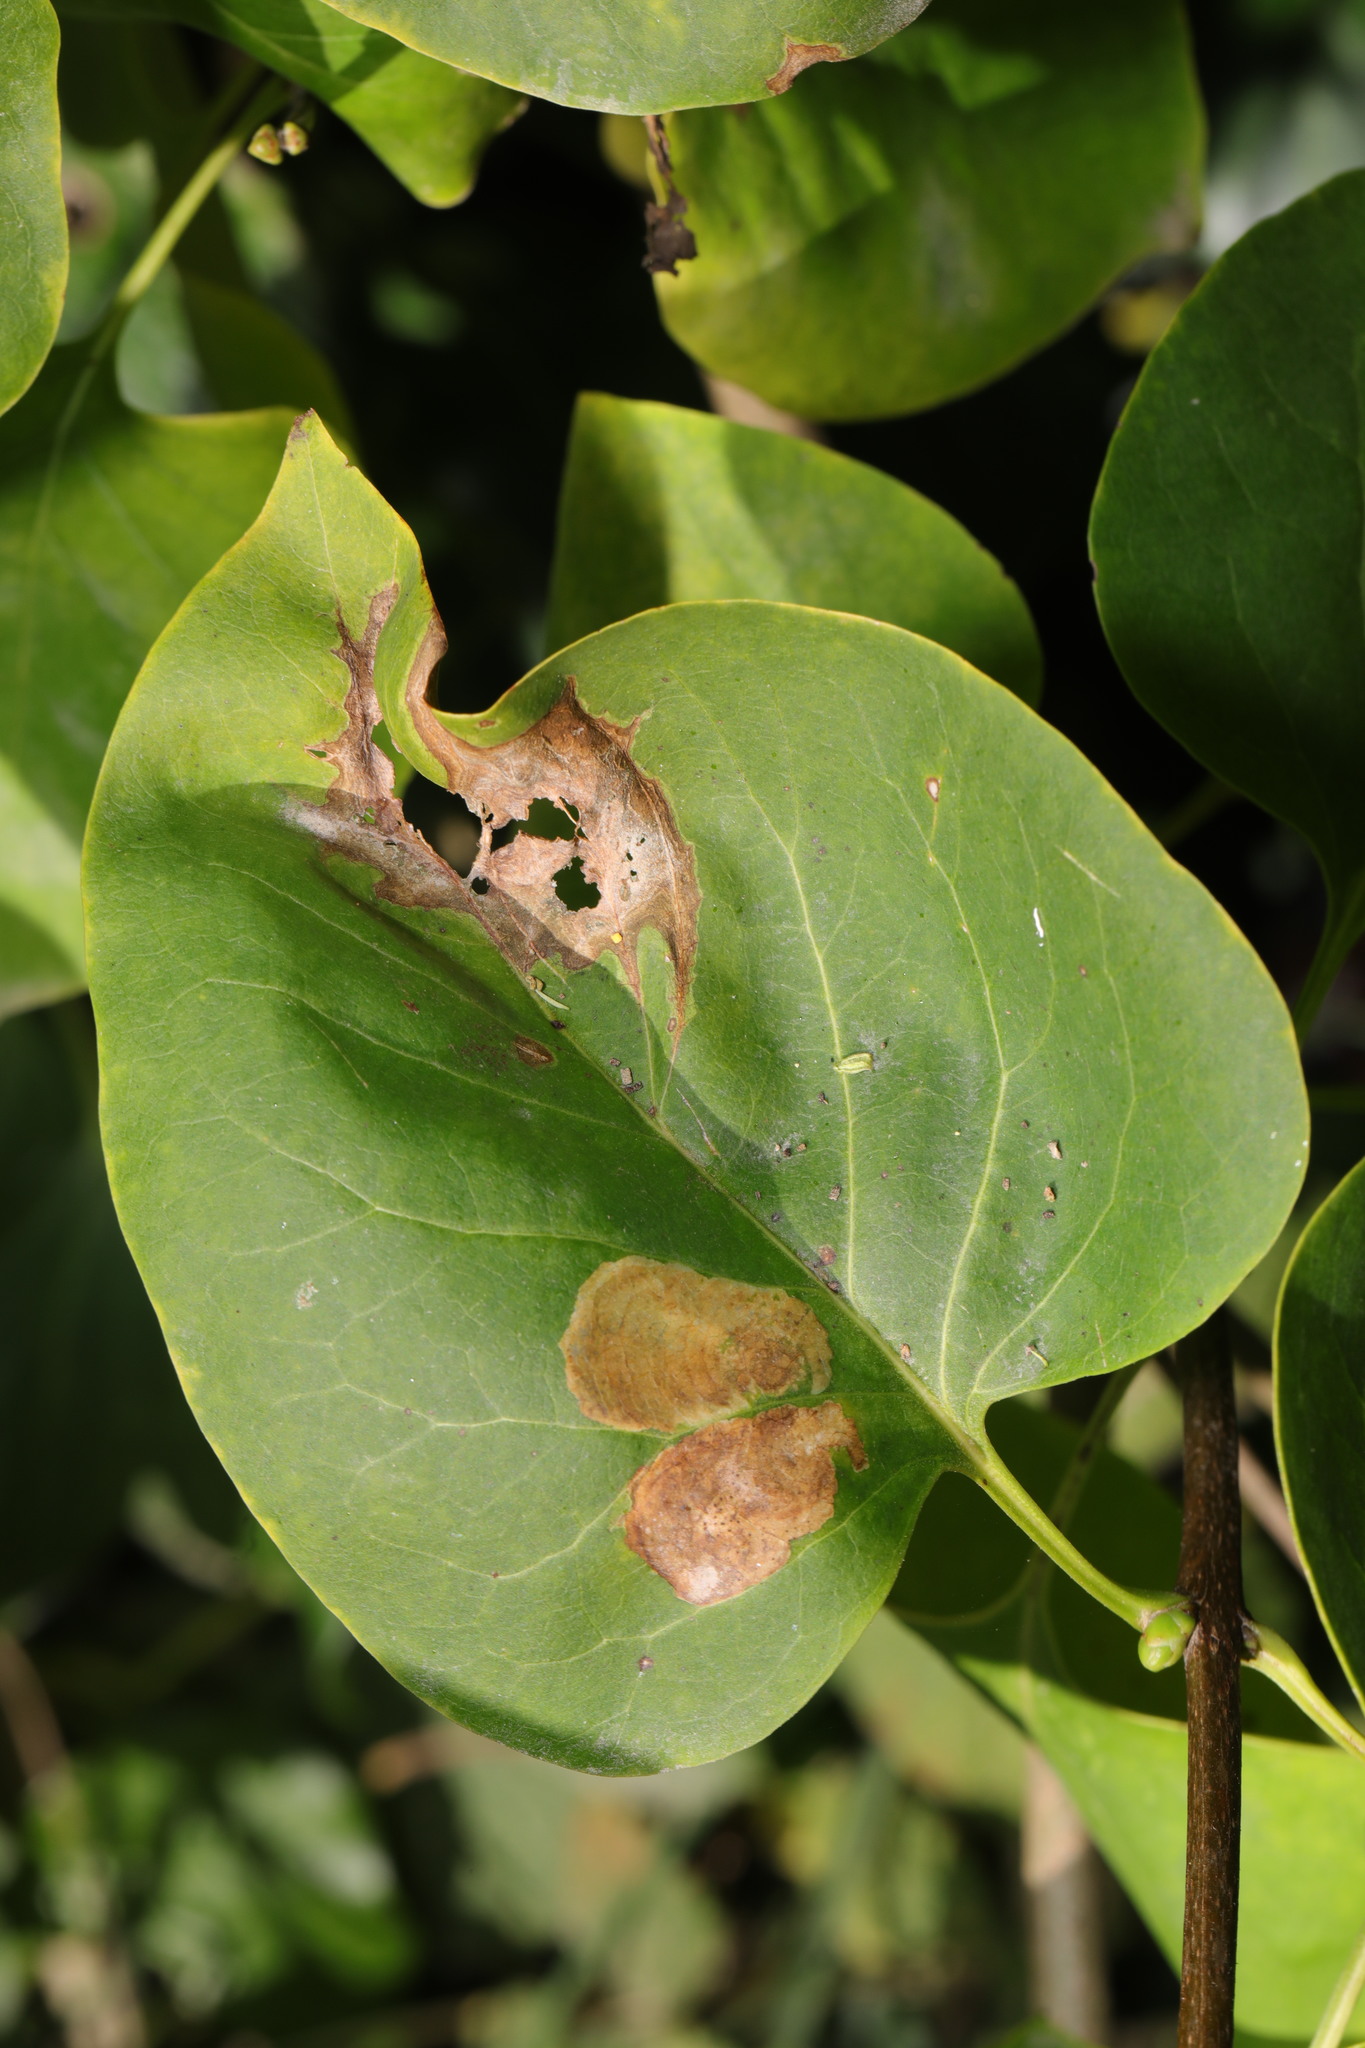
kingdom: Animalia
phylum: Arthropoda
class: Insecta
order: Lepidoptera
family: Gracillariidae
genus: Gracillaria
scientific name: Gracillaria syringella
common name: Common slender
